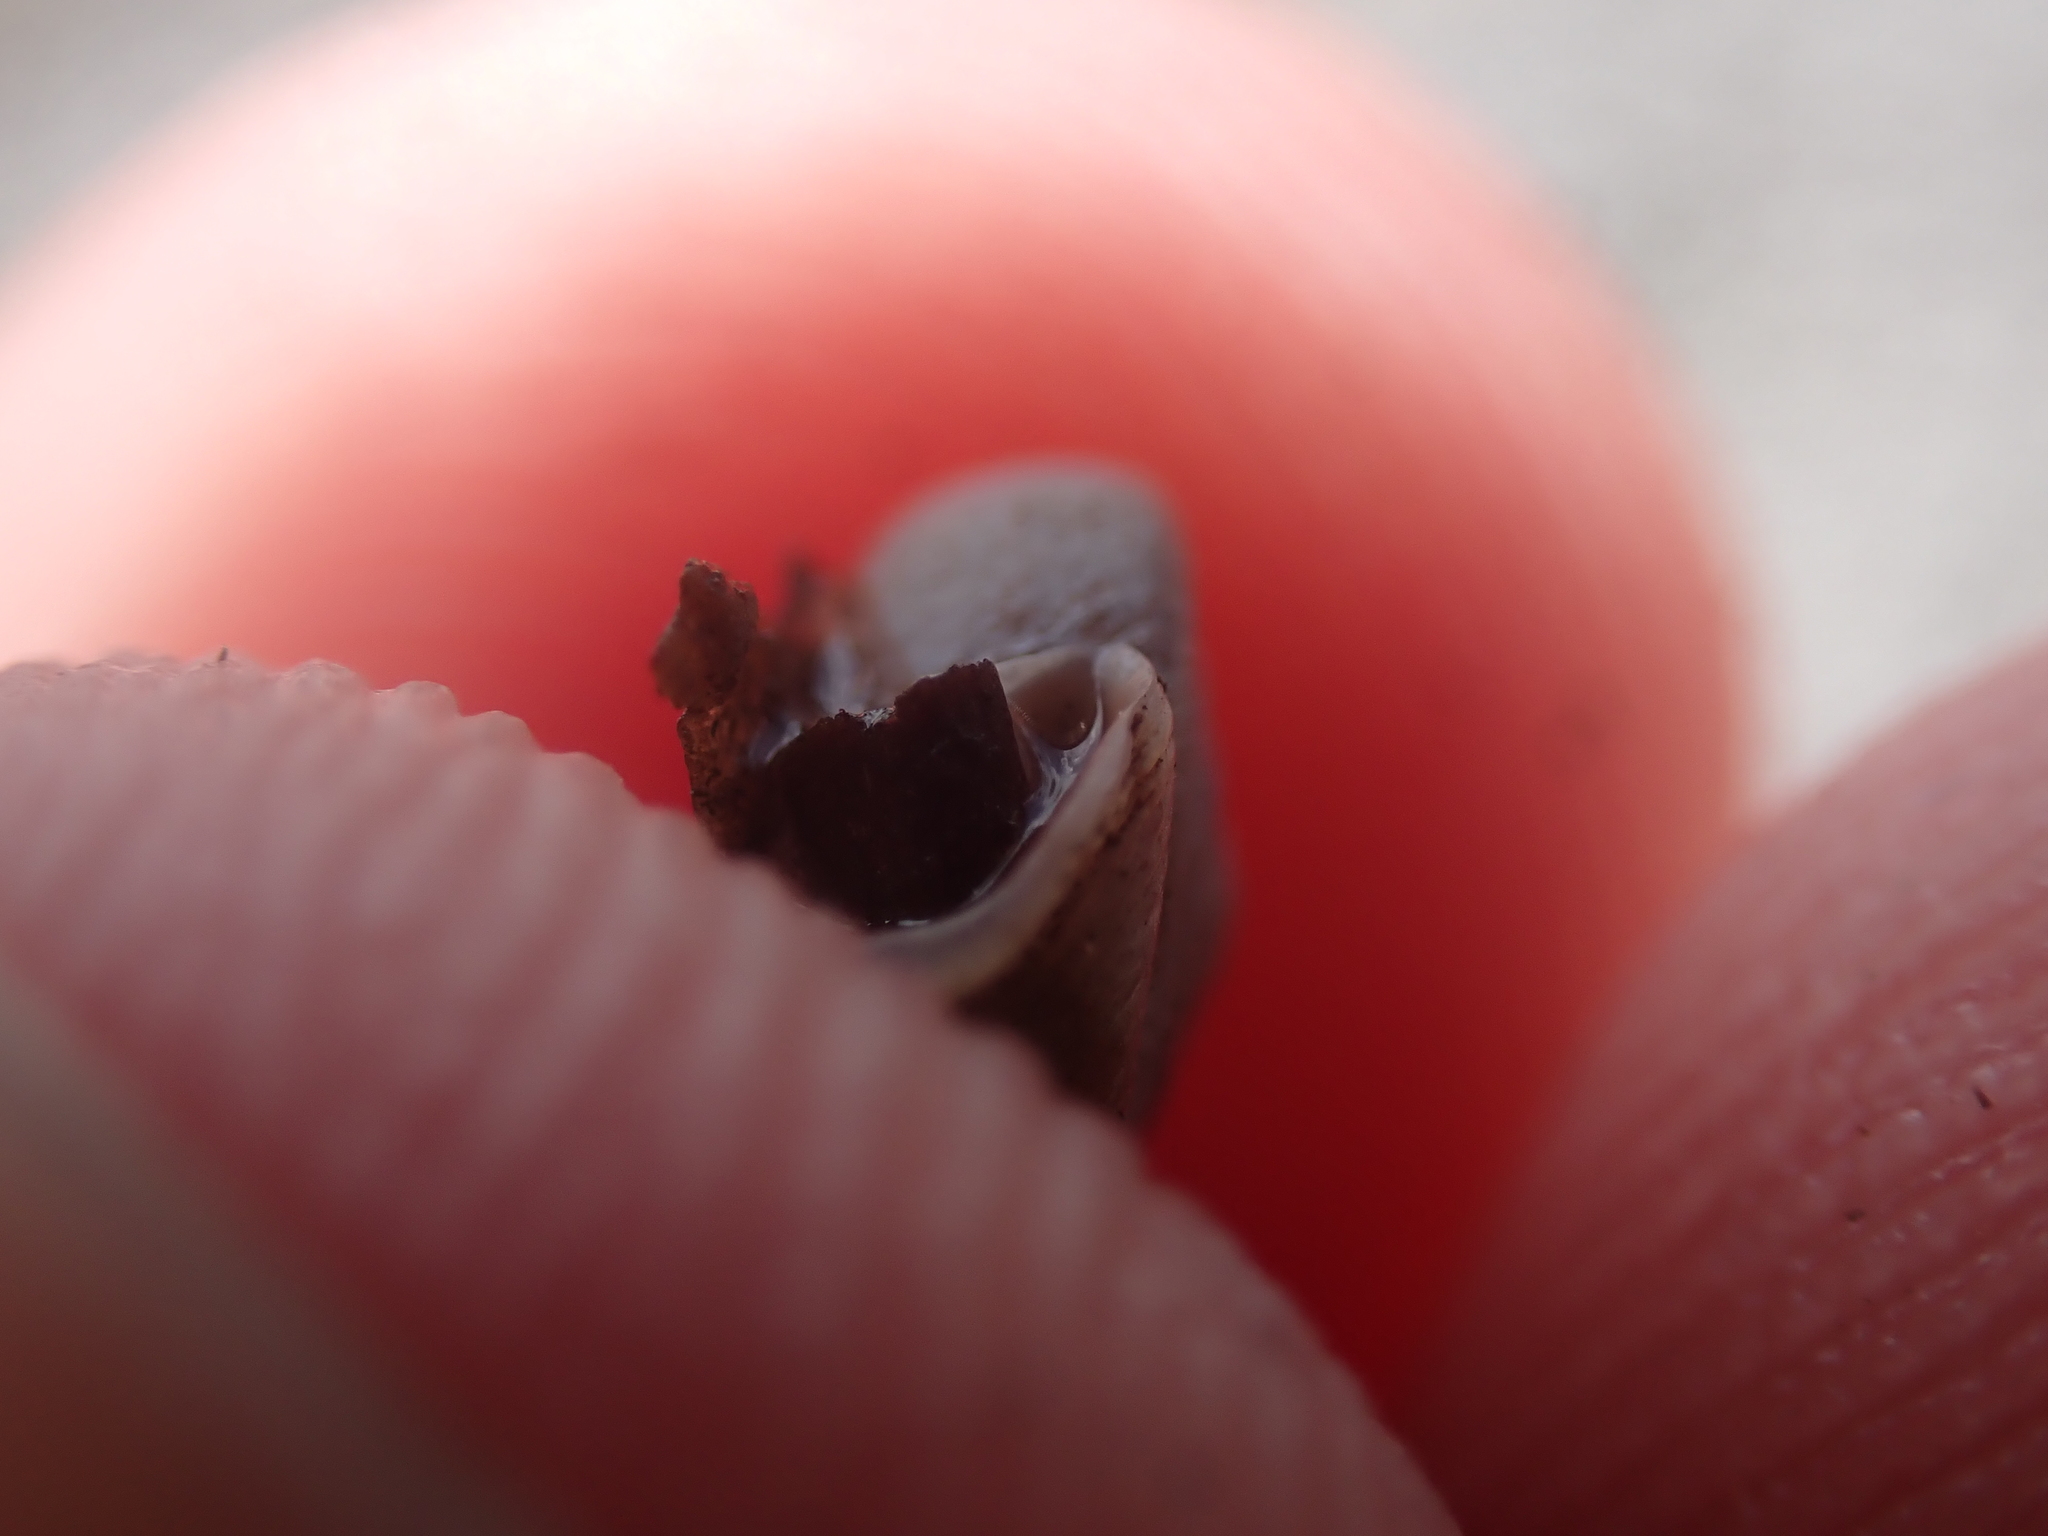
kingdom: Animalia
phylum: Mollusca
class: Gastropoda
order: Stylommatophora
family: Polygyridae
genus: Polygyra
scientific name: Polygyra cereolus
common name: Southern flatcone snail
